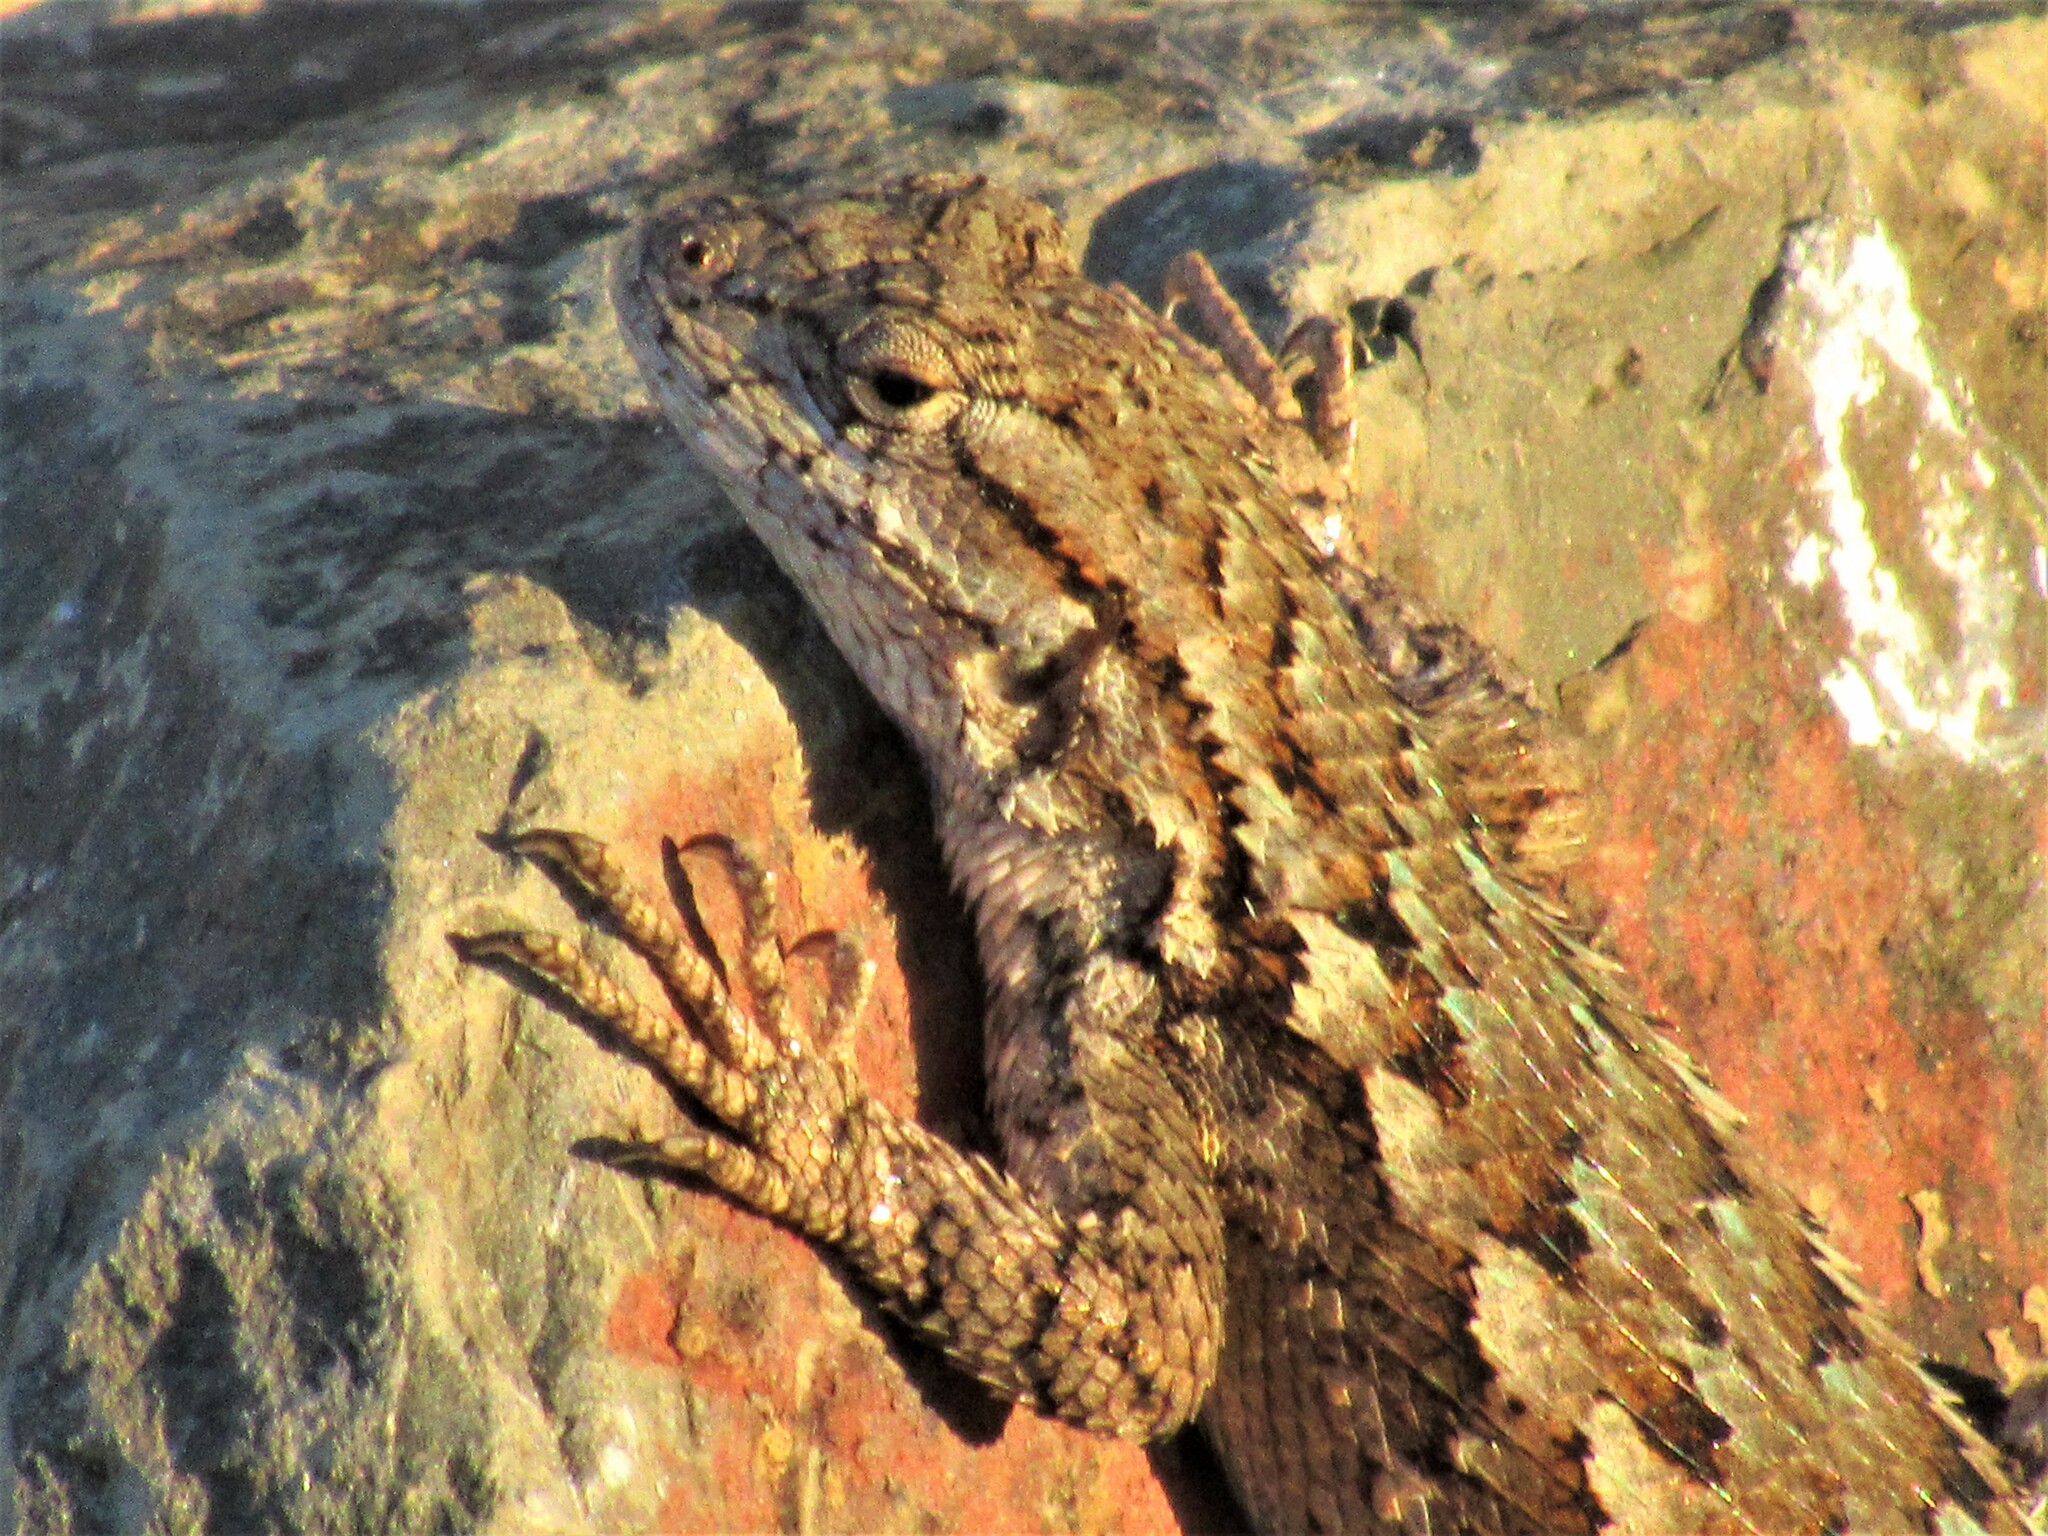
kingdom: Animalia
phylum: Chordata
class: Squamata
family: Phrynosomatidae
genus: Sceloporus
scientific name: Sceloporus occidentalis
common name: Western fence lizard
